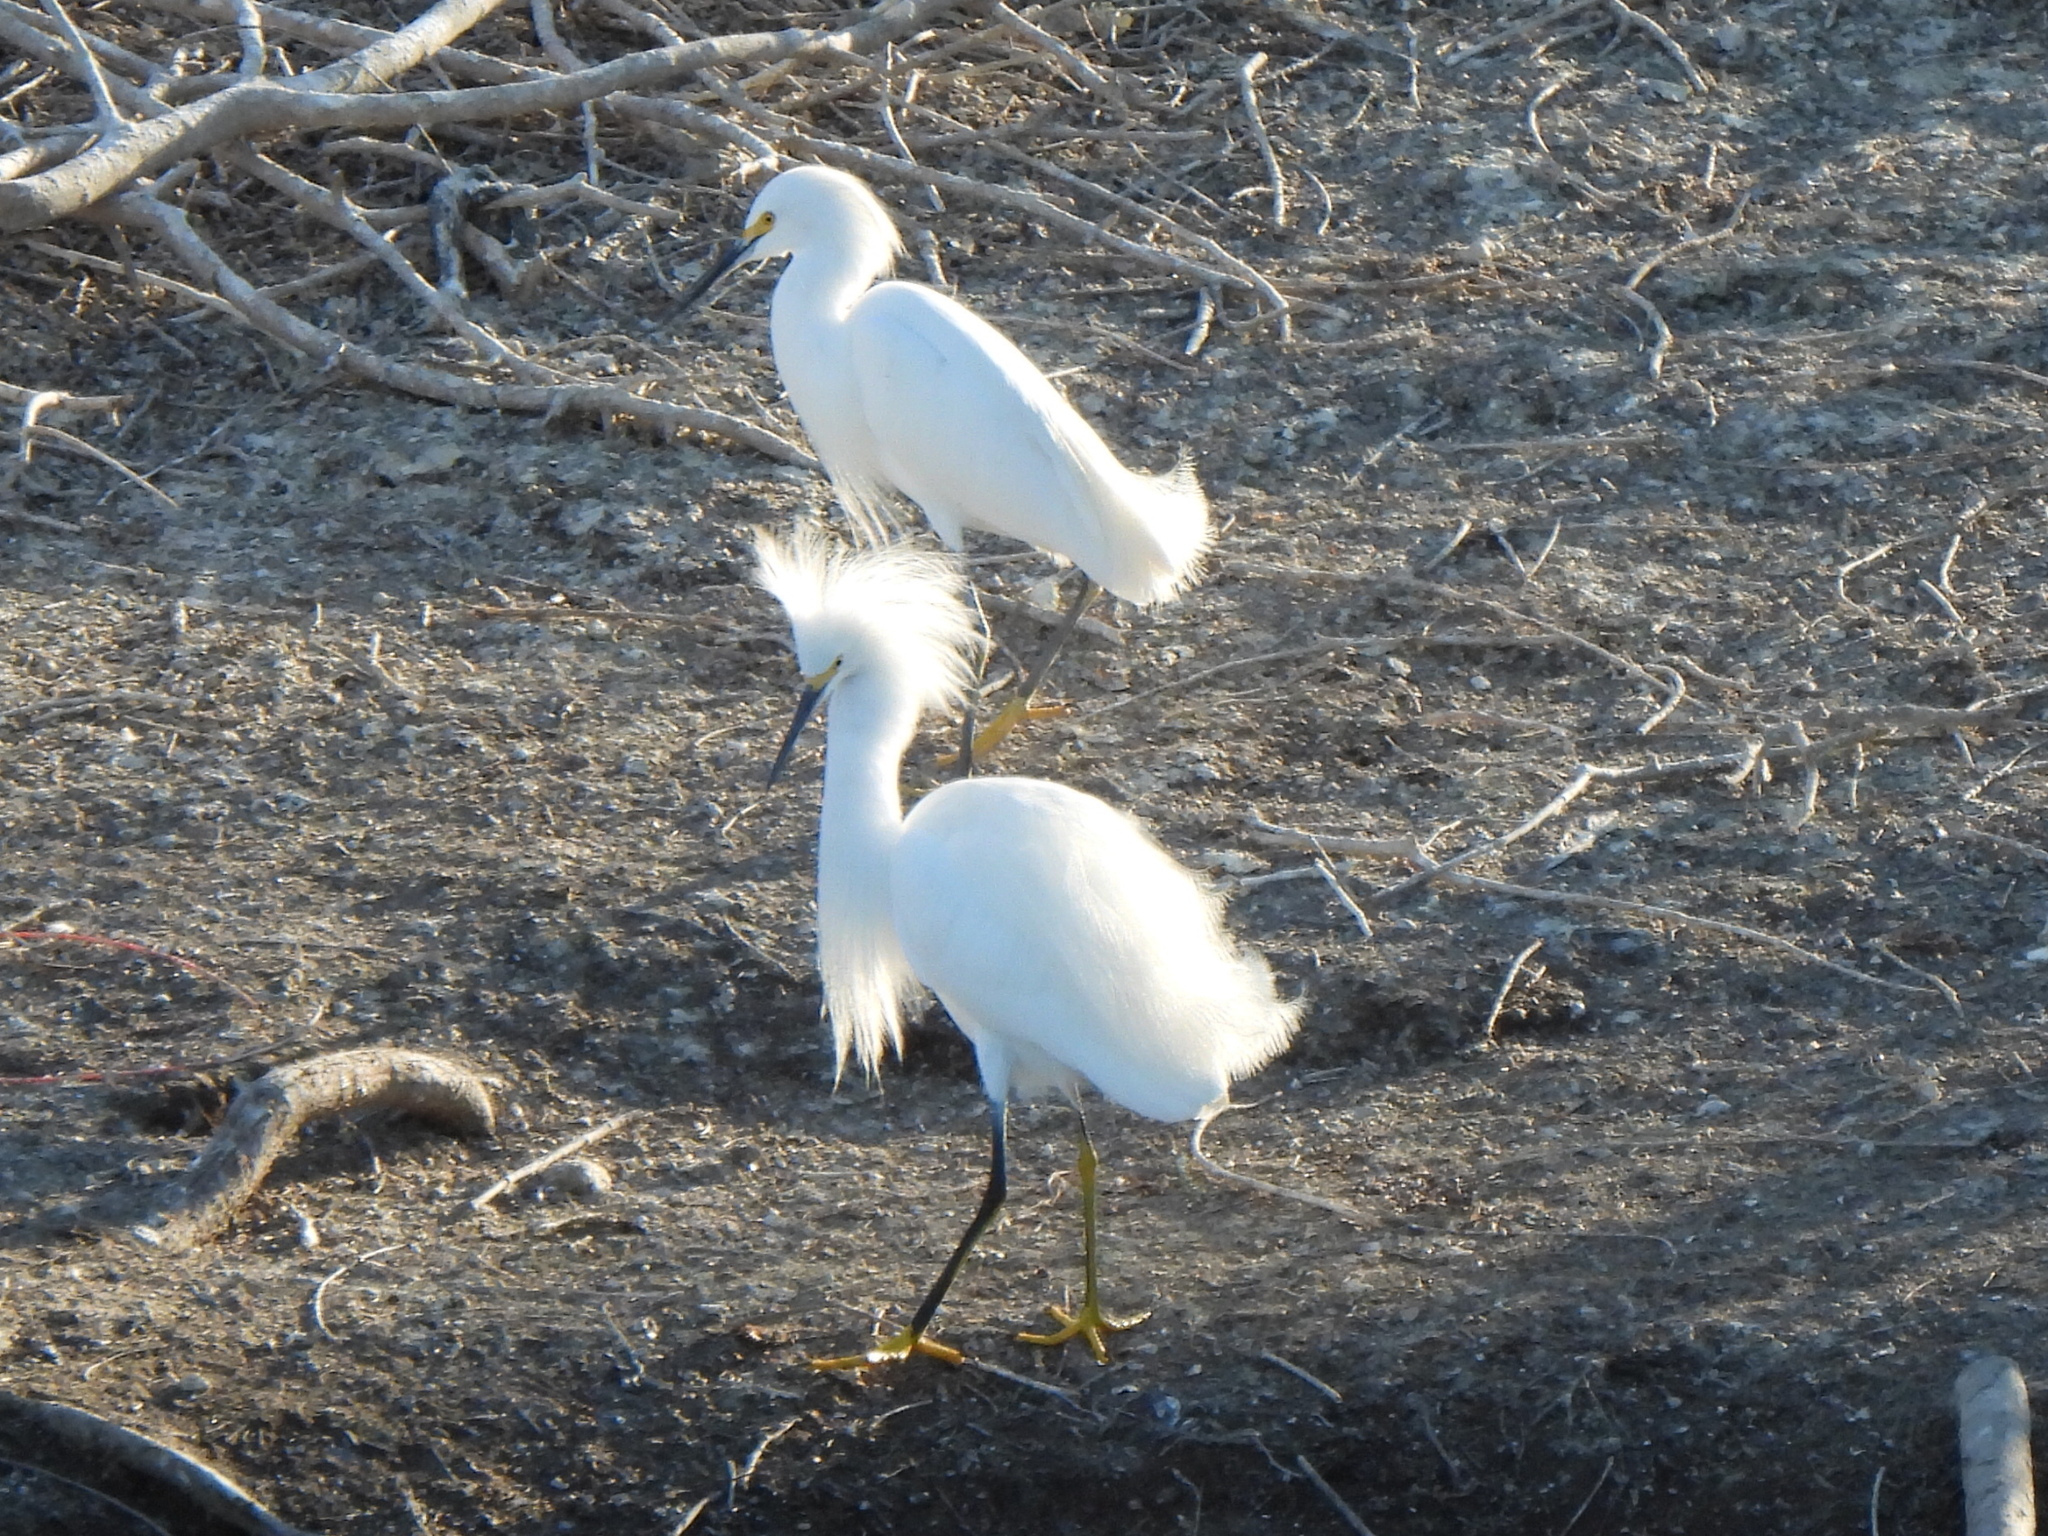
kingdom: Animalia
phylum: Chordata
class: Aves
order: Pelecaniformes
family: Ardeidae
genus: Egretta
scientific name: Egretta thula
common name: Snowy egret
